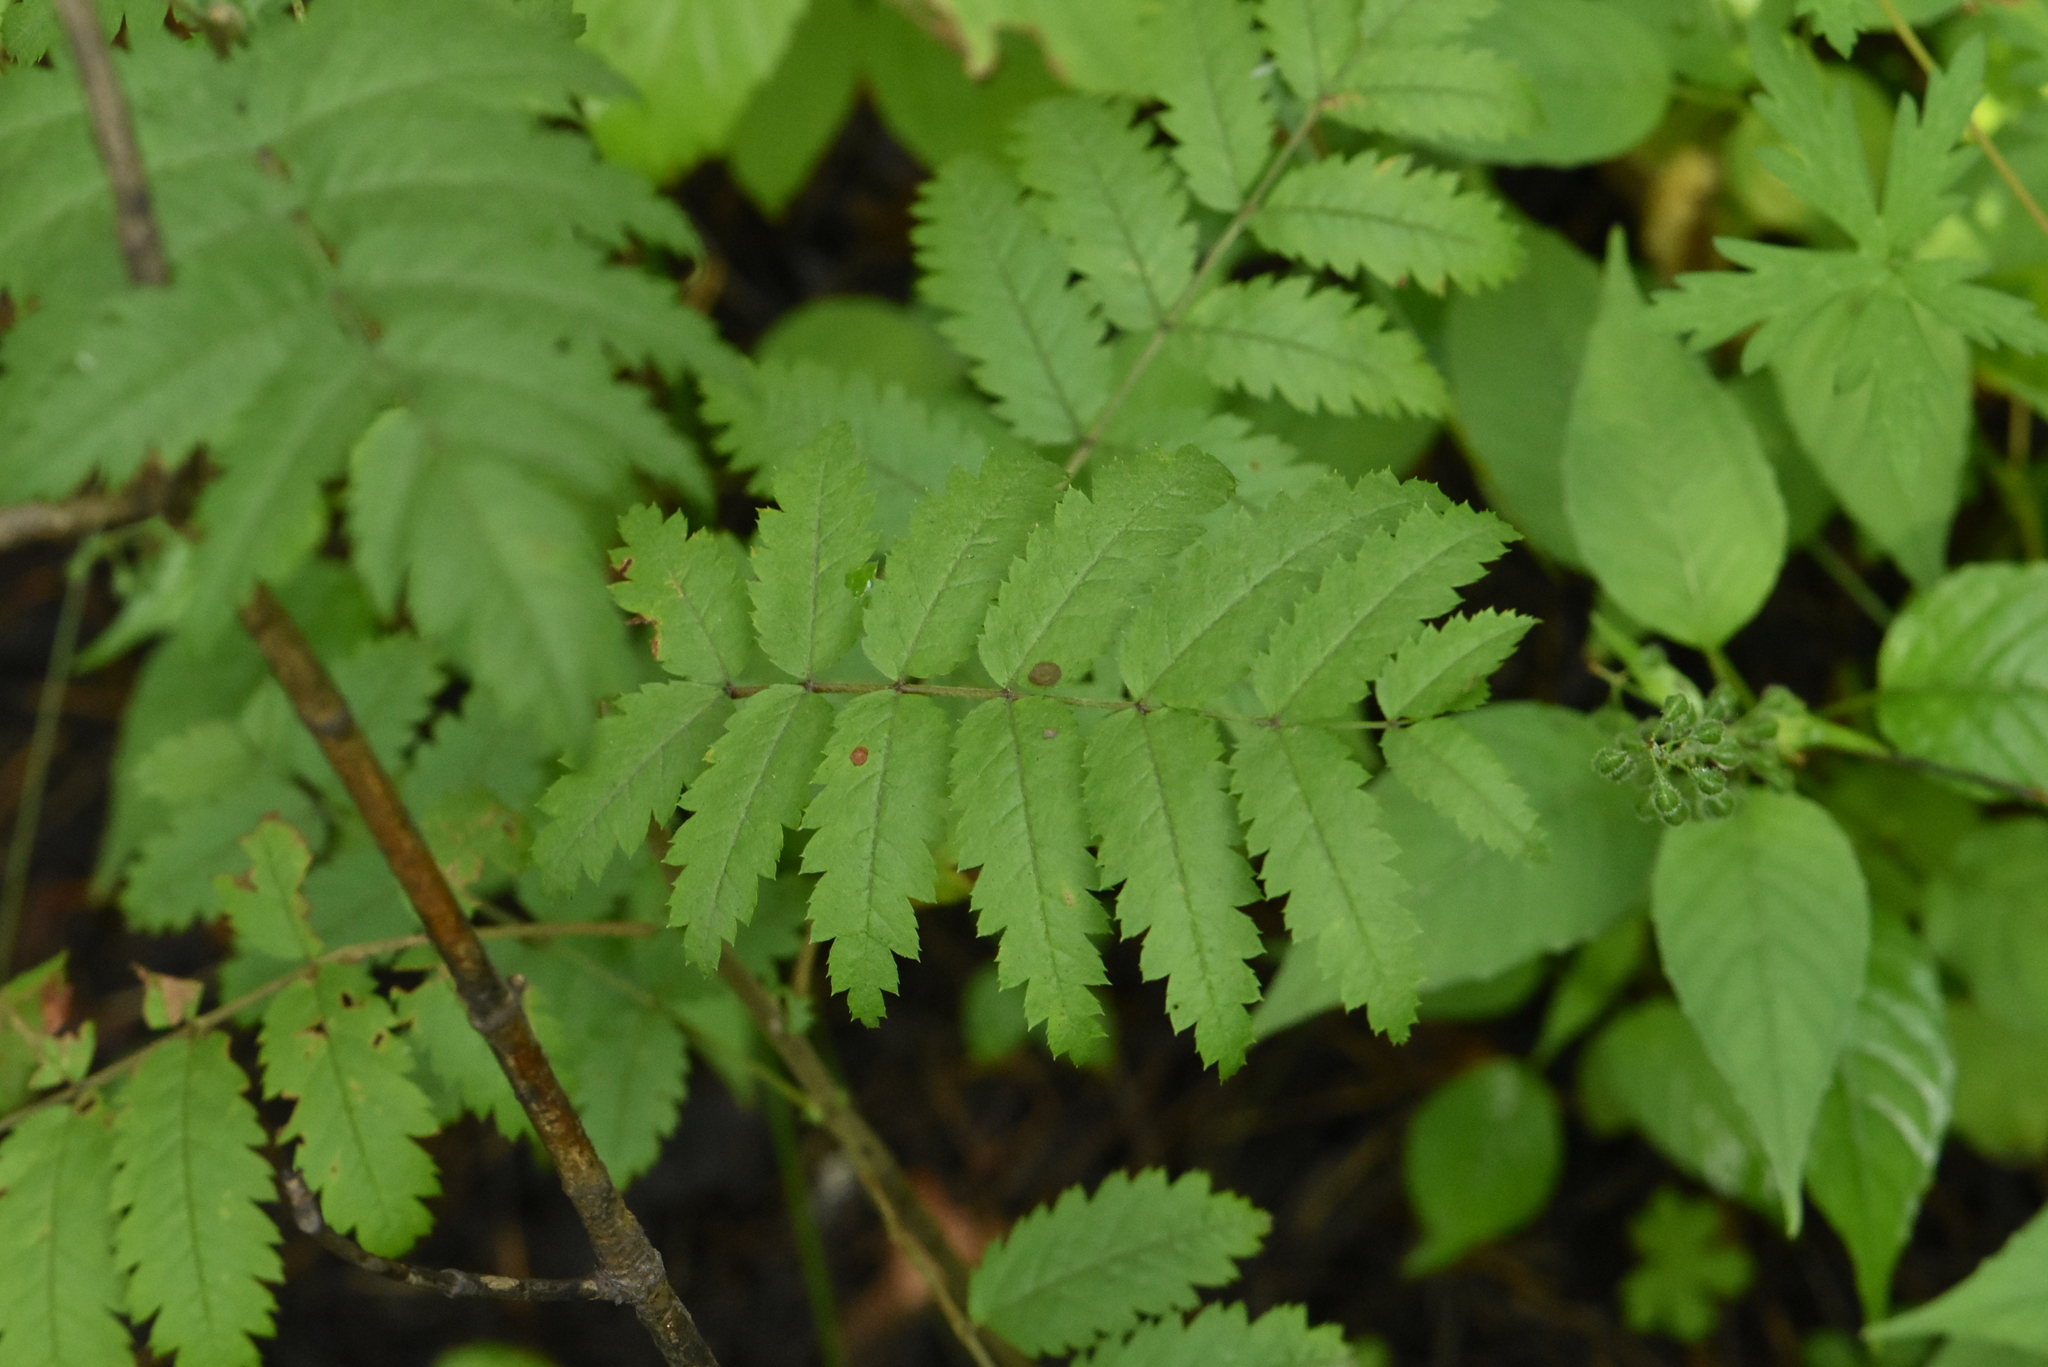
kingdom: Plantae
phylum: Tracheophyta
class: Magnoliopsida
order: Rosales
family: Rosaceae
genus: Sorbus
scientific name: Sorbus aucuparia
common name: Rowan
